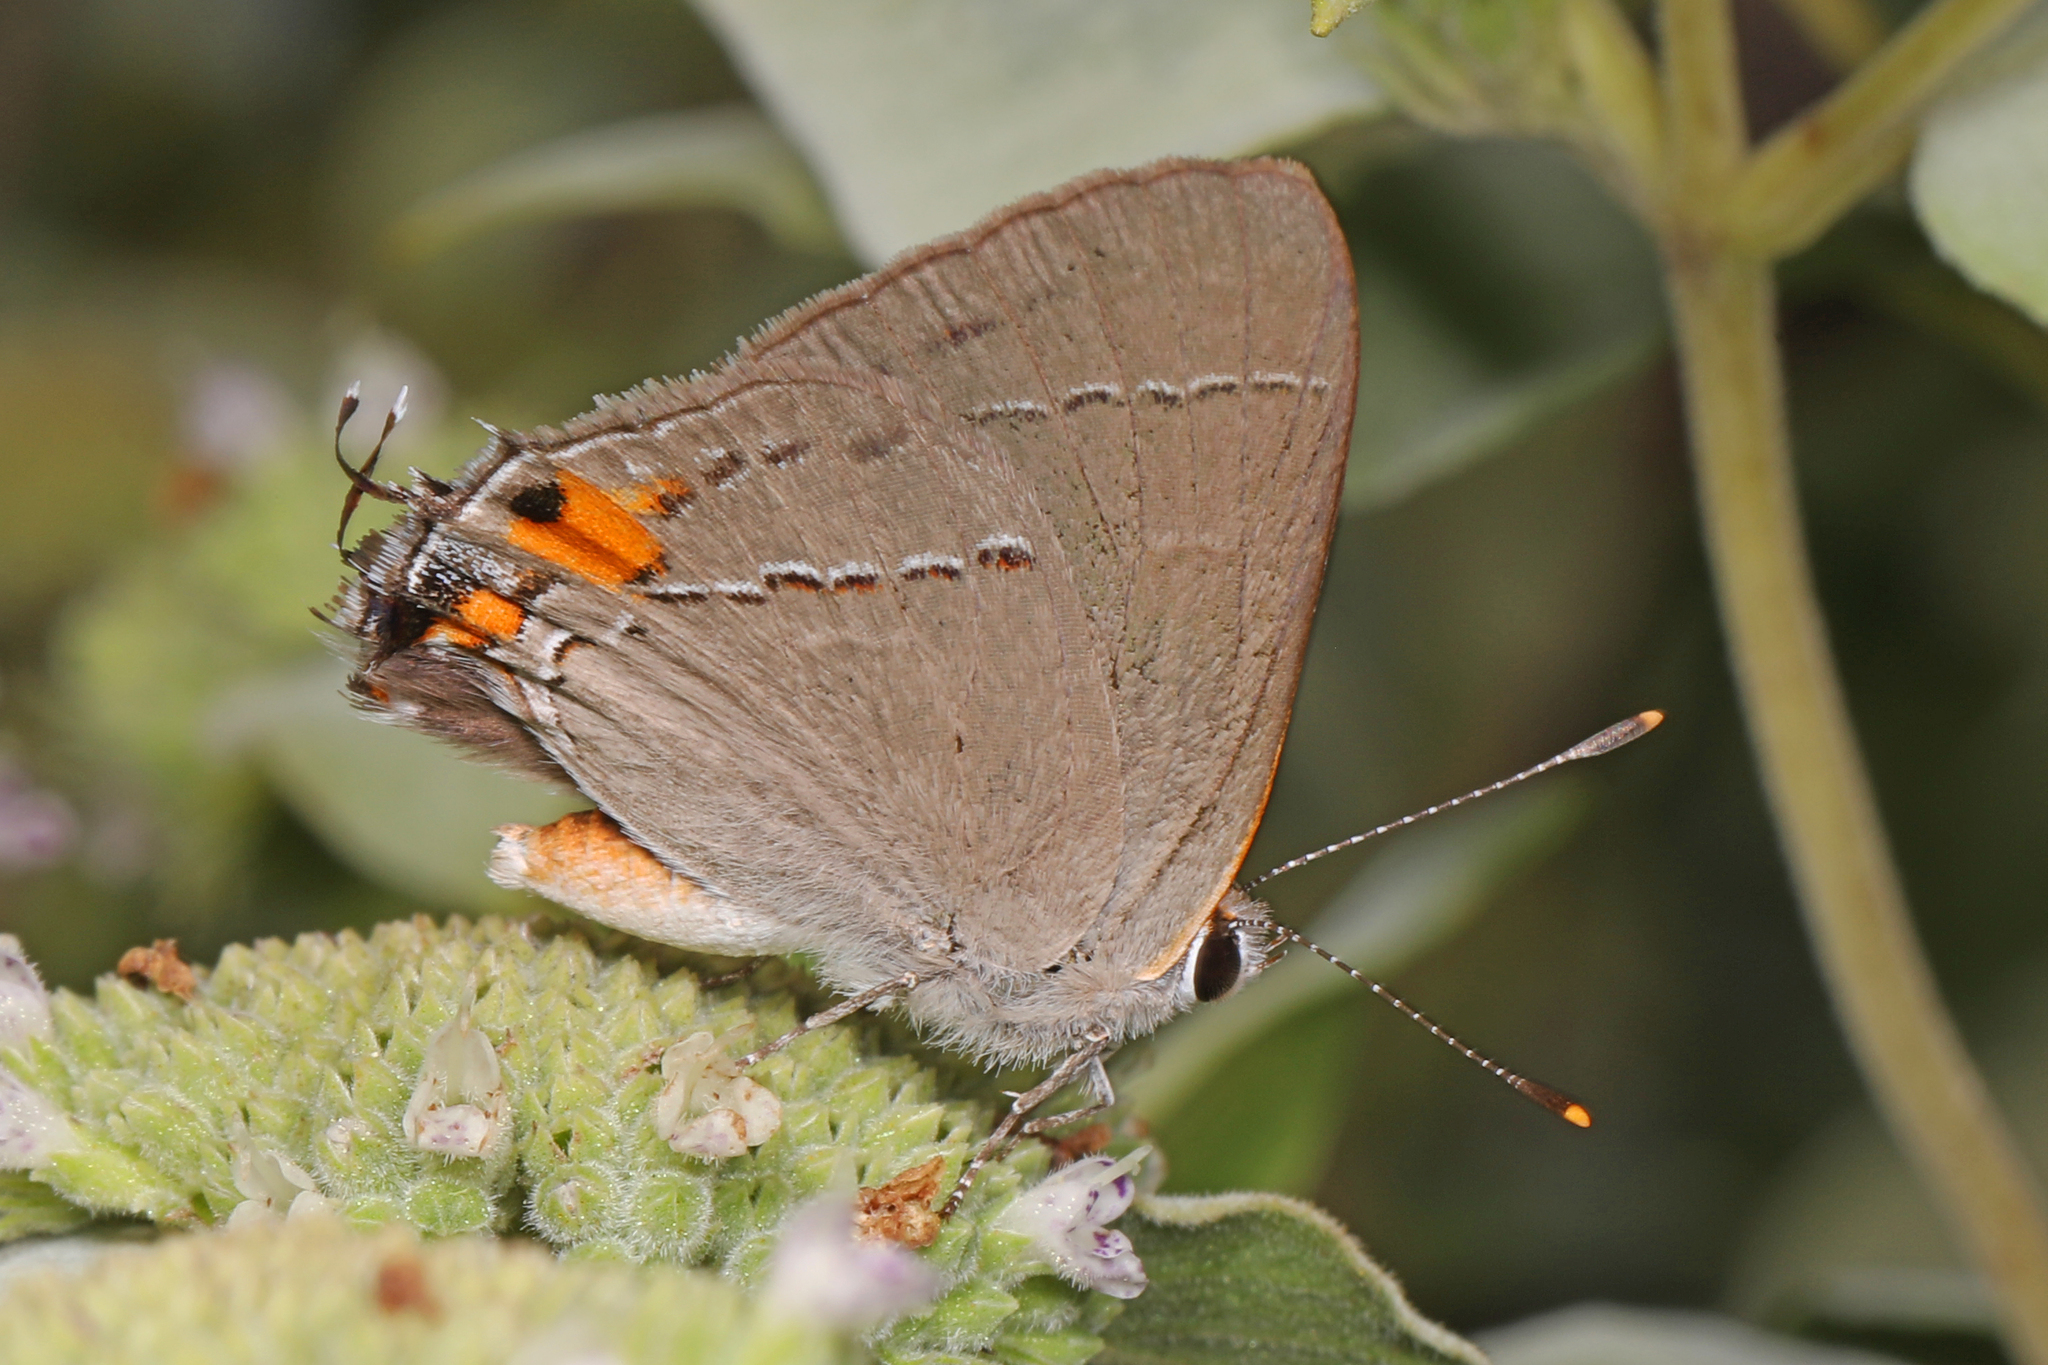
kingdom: Animalia
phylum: Arthropoda
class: Insecta
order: Lepidoptera
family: Lycaenidae
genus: Strymon
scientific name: Strymon melinus
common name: Gray hairstreak
